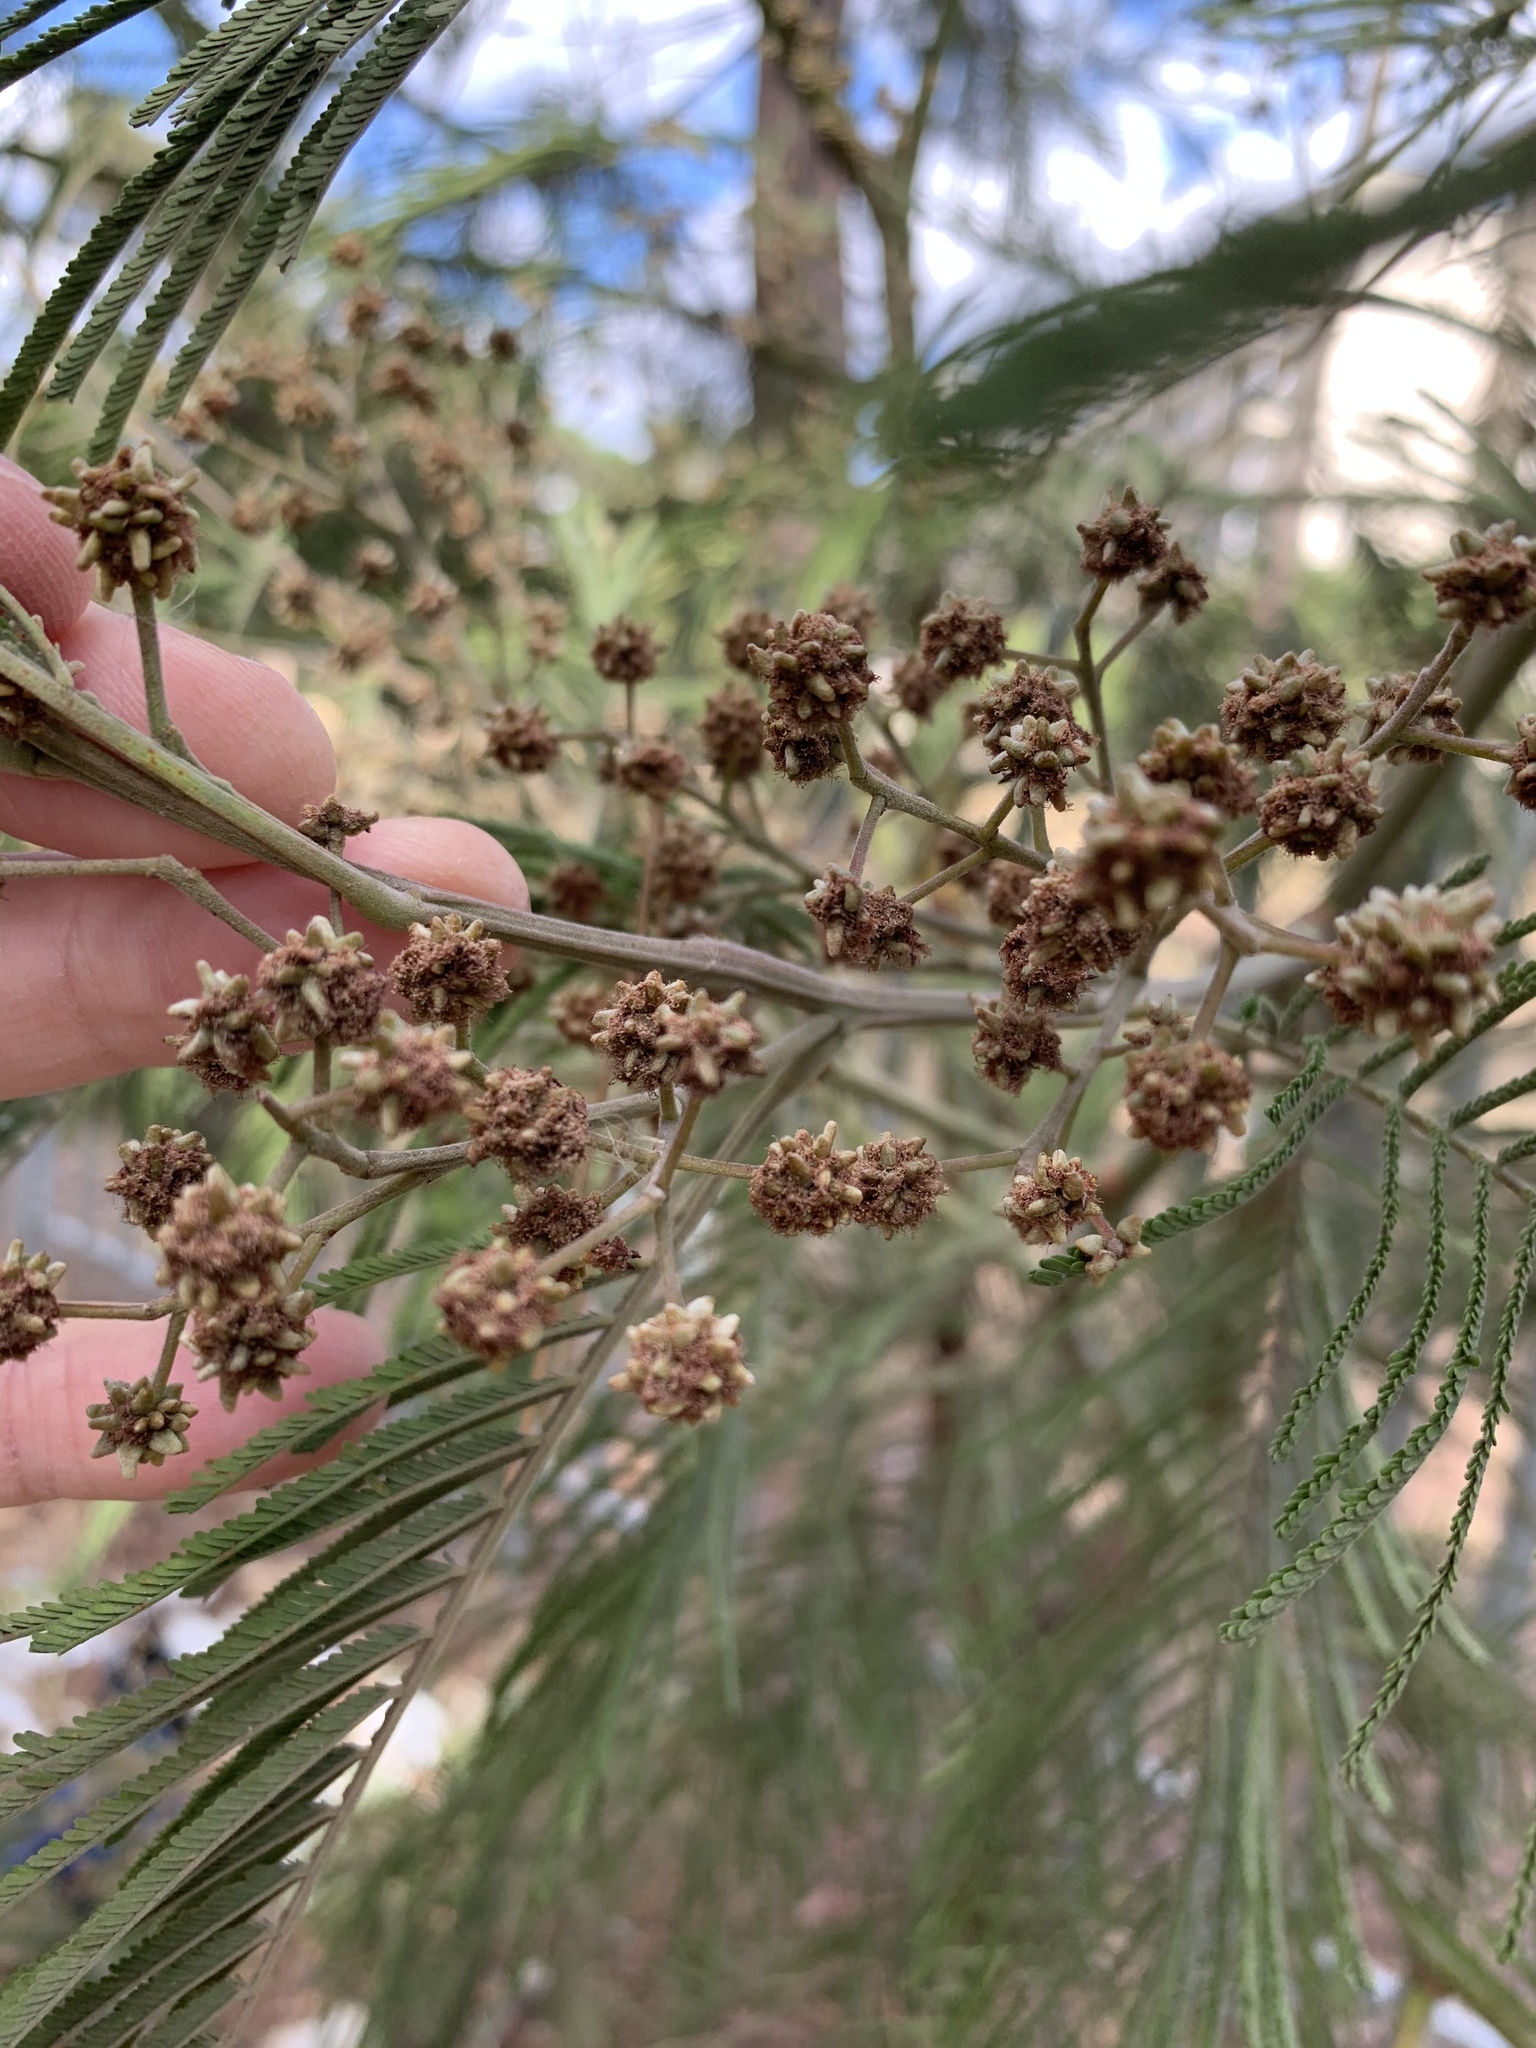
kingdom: Plantae
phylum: Tracheophyta
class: Magnoliopsida
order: Fabales
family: Fabaceae
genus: Acacia
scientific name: Acacia mearnsii
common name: Black wattle
